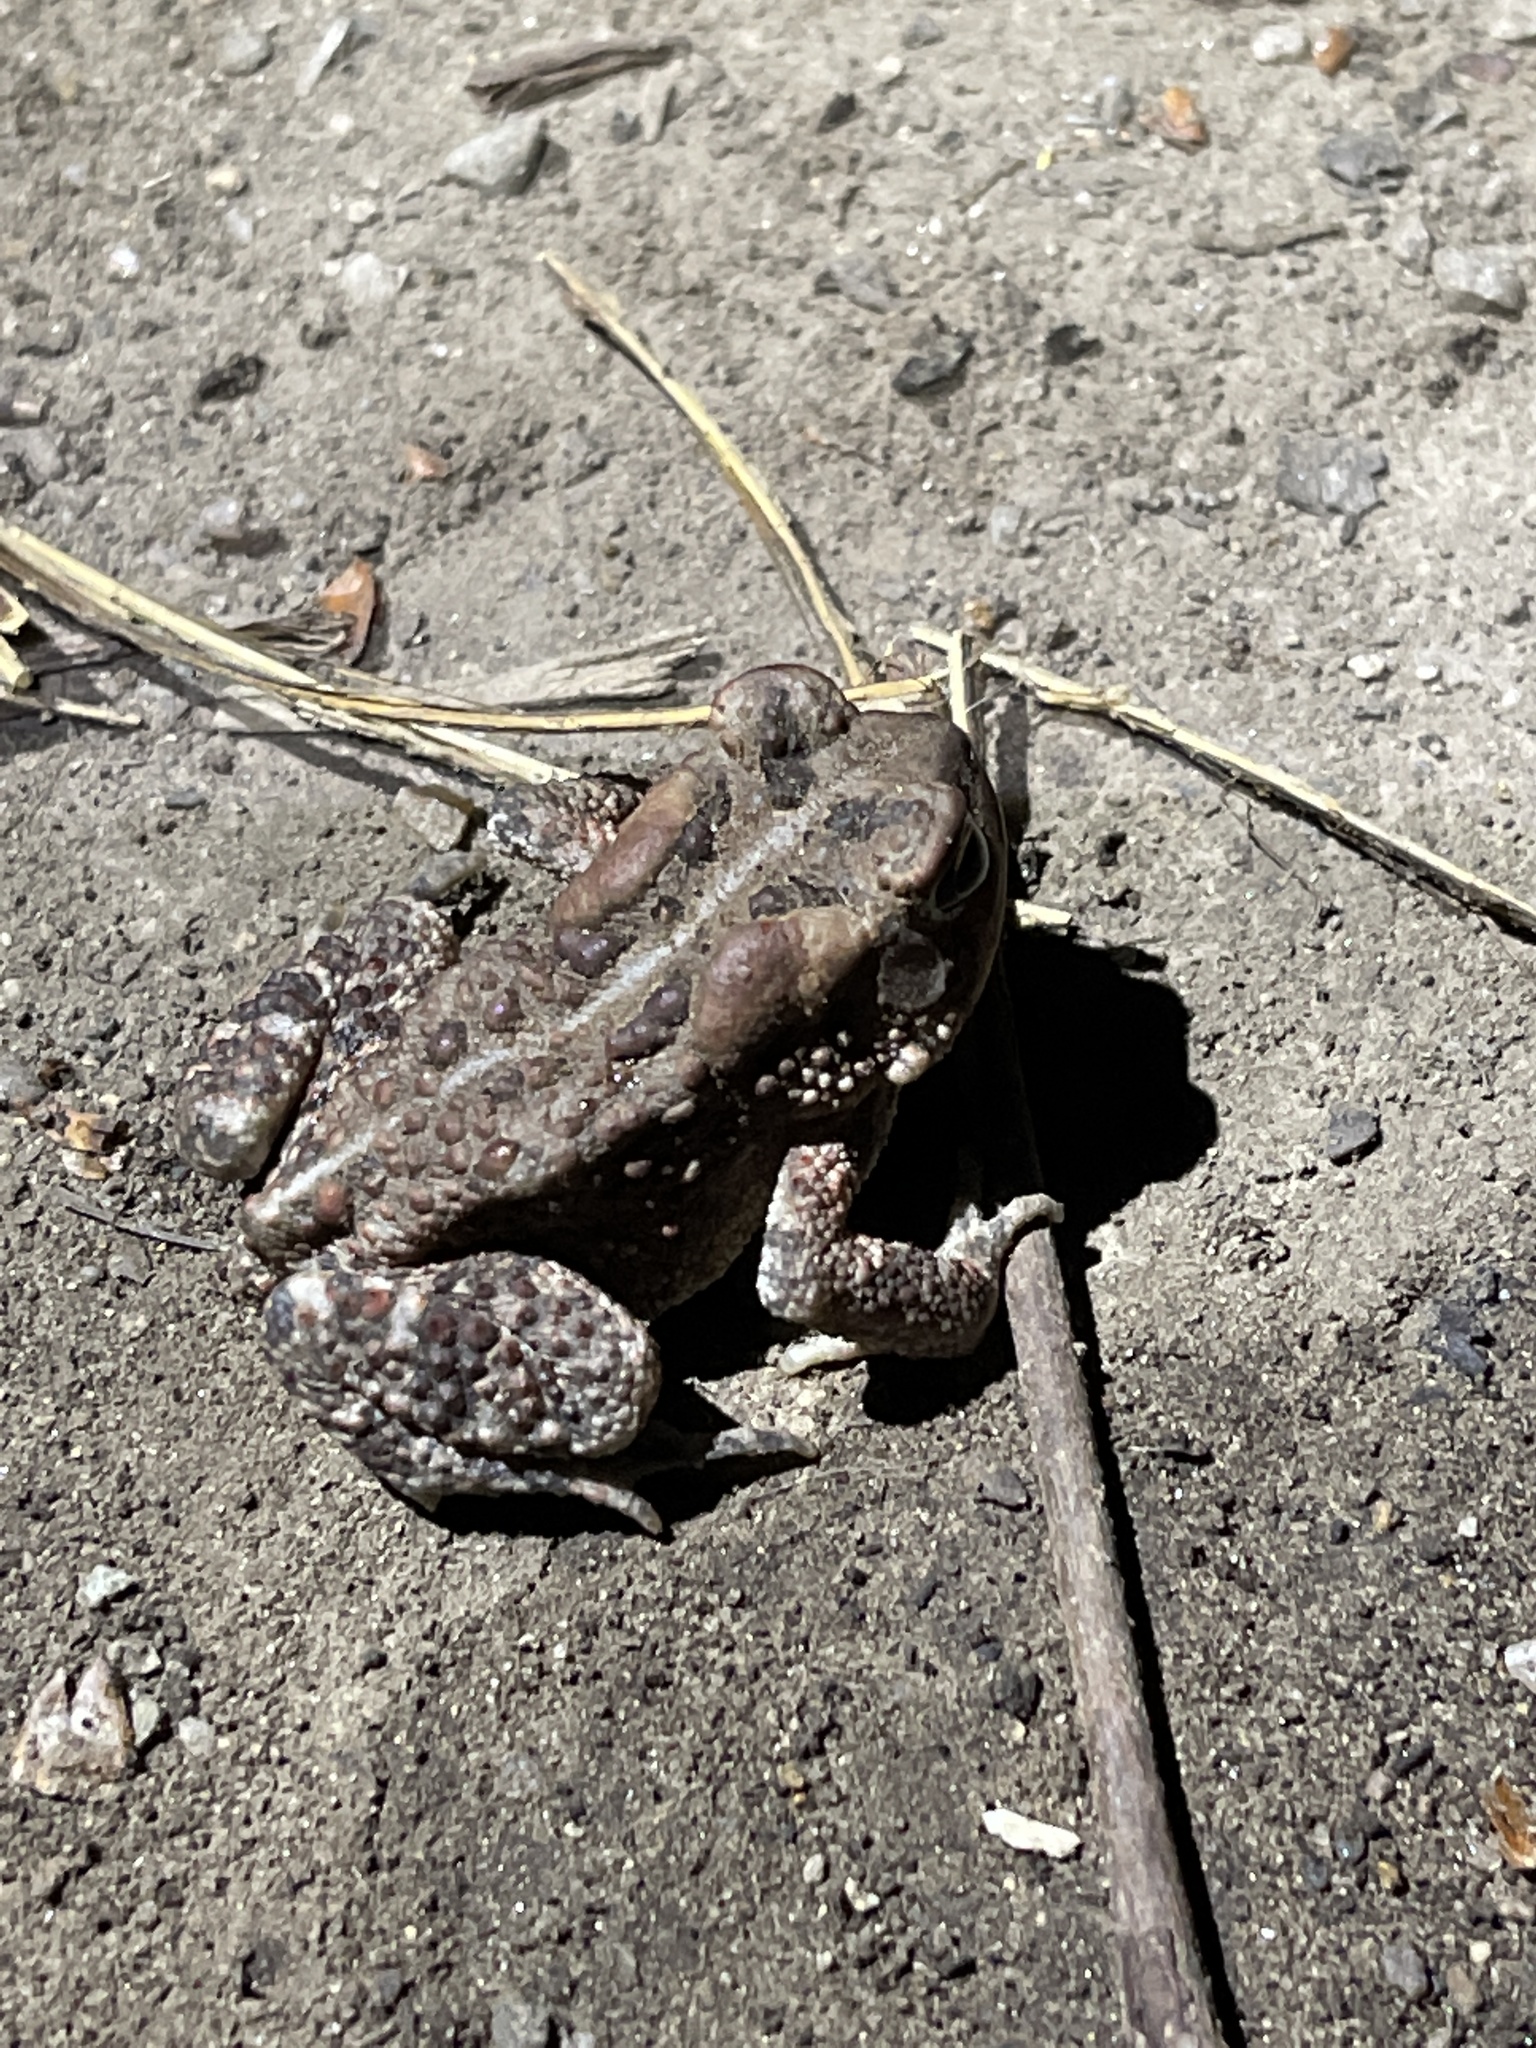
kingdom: Animalia
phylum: Chordata
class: Amphibia
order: Anura
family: Bufonidae
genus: Anaxyrus
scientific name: Anaxyrus americanus
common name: American toad
